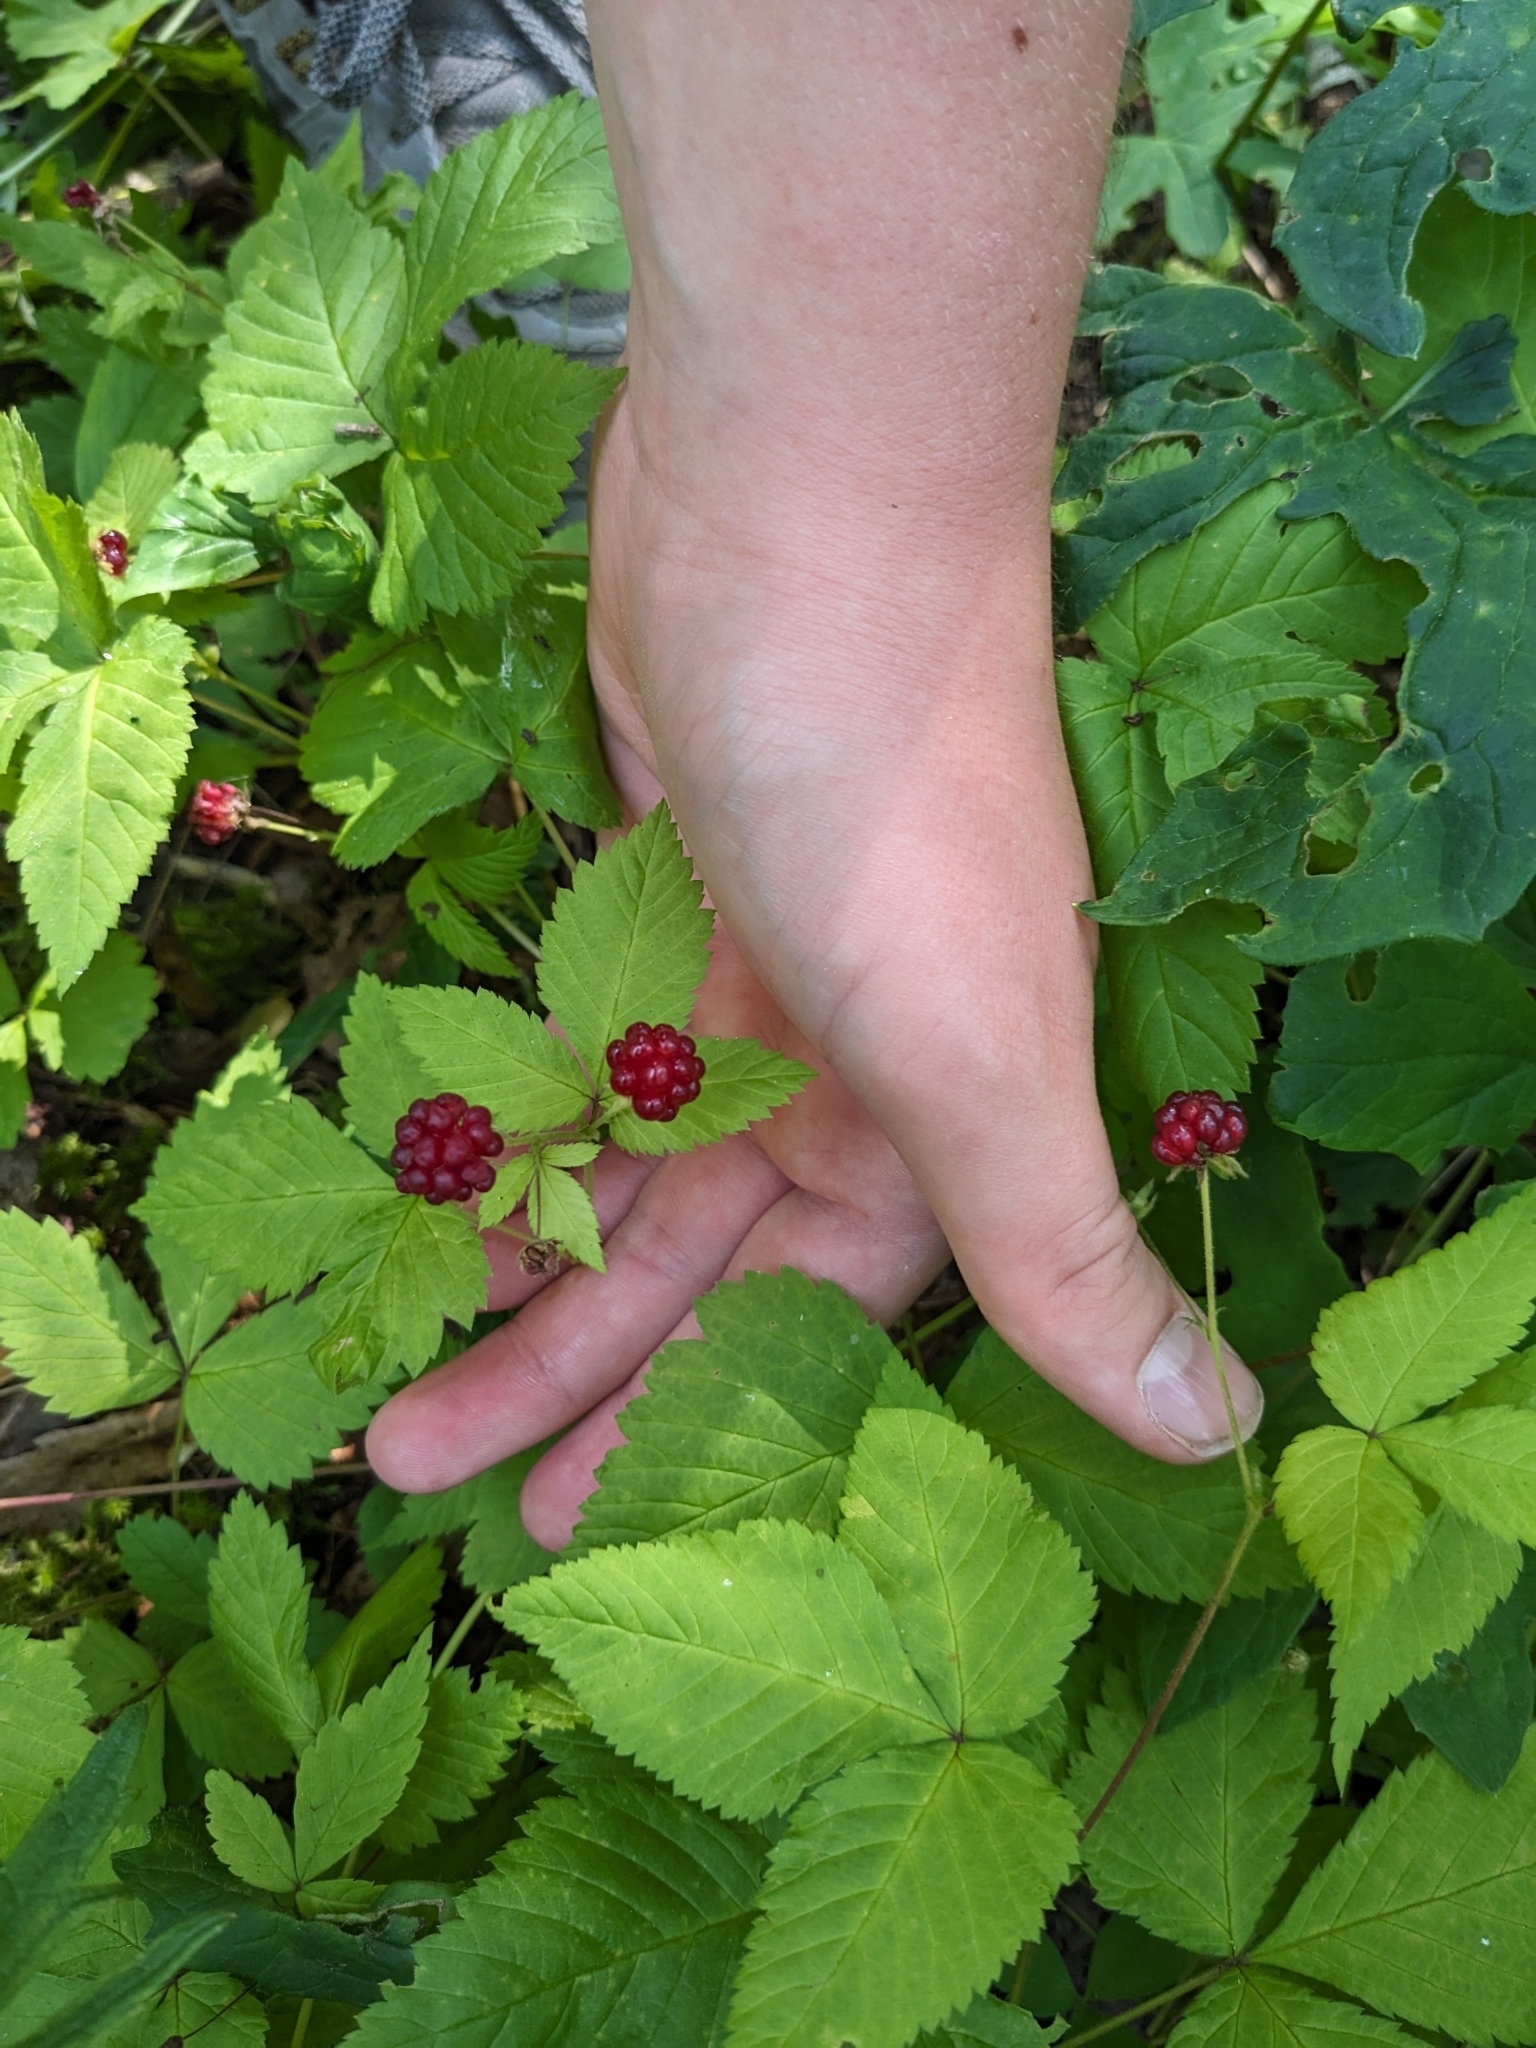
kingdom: Plantae
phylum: Tracheophyta
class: Magnoliopsida
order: Rosales
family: Rosaceae
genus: Rubus
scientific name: Rubus pubescens
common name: Dwarf raspberry
